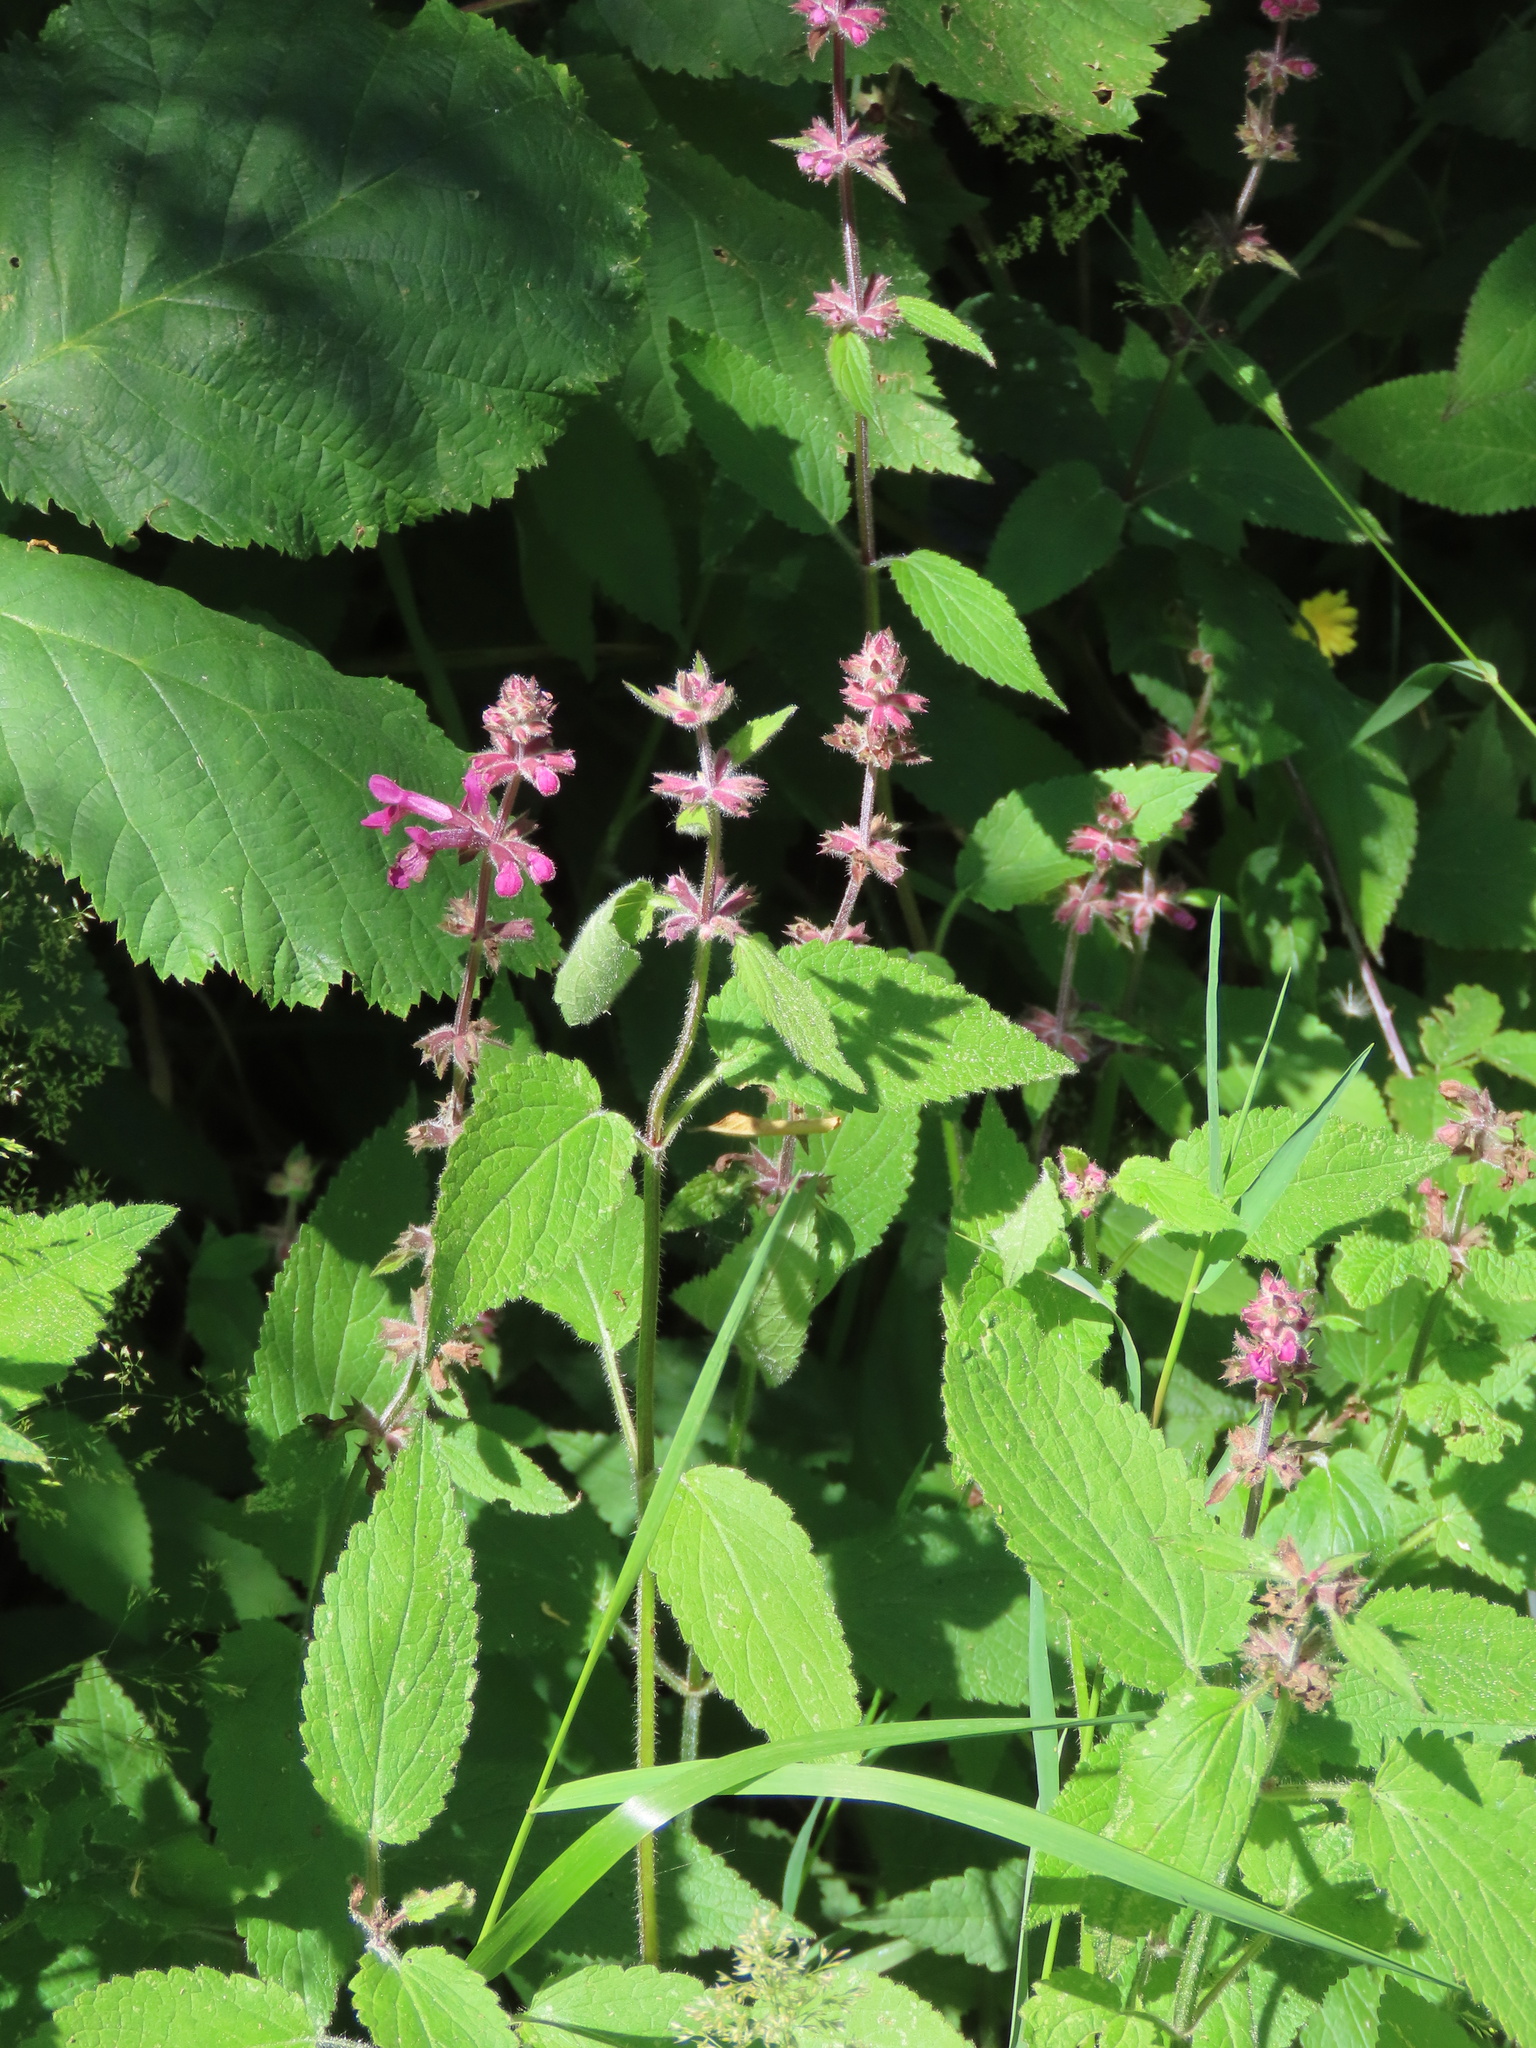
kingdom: Plantae
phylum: Tracheophyta
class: Magnoliopsida
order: Lamiales
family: Lamiaceae
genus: Stachys
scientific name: Stachys chamissonis
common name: Coastal hedge-nettle
